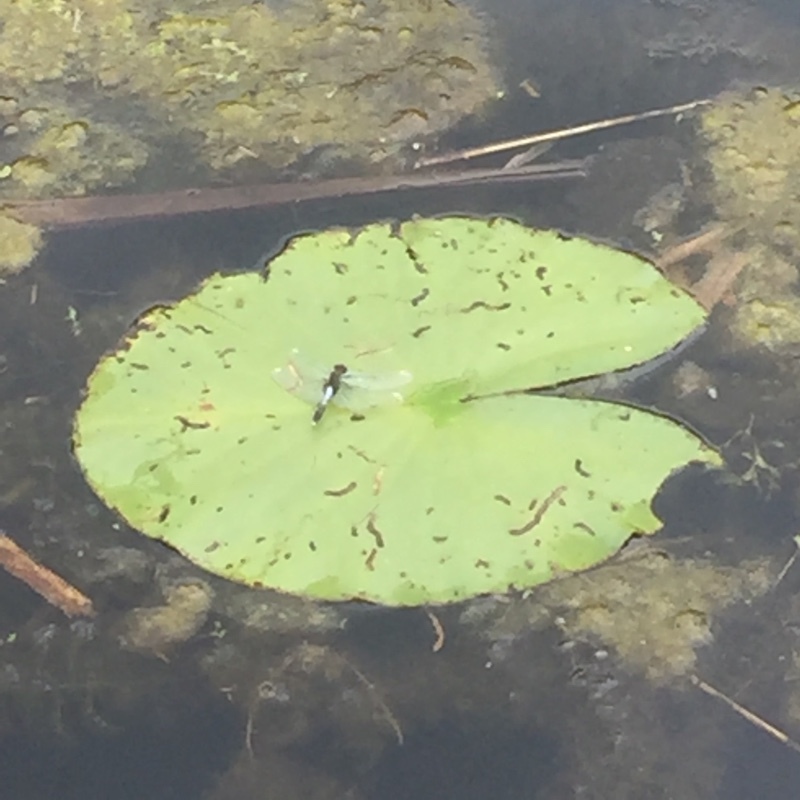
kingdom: Animalia
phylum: Arthropoda
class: Insecta
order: Odonata
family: Libellulidae
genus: Leucorrhinia
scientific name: Leucorrhinia caudalis
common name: Lilypad whiteface
